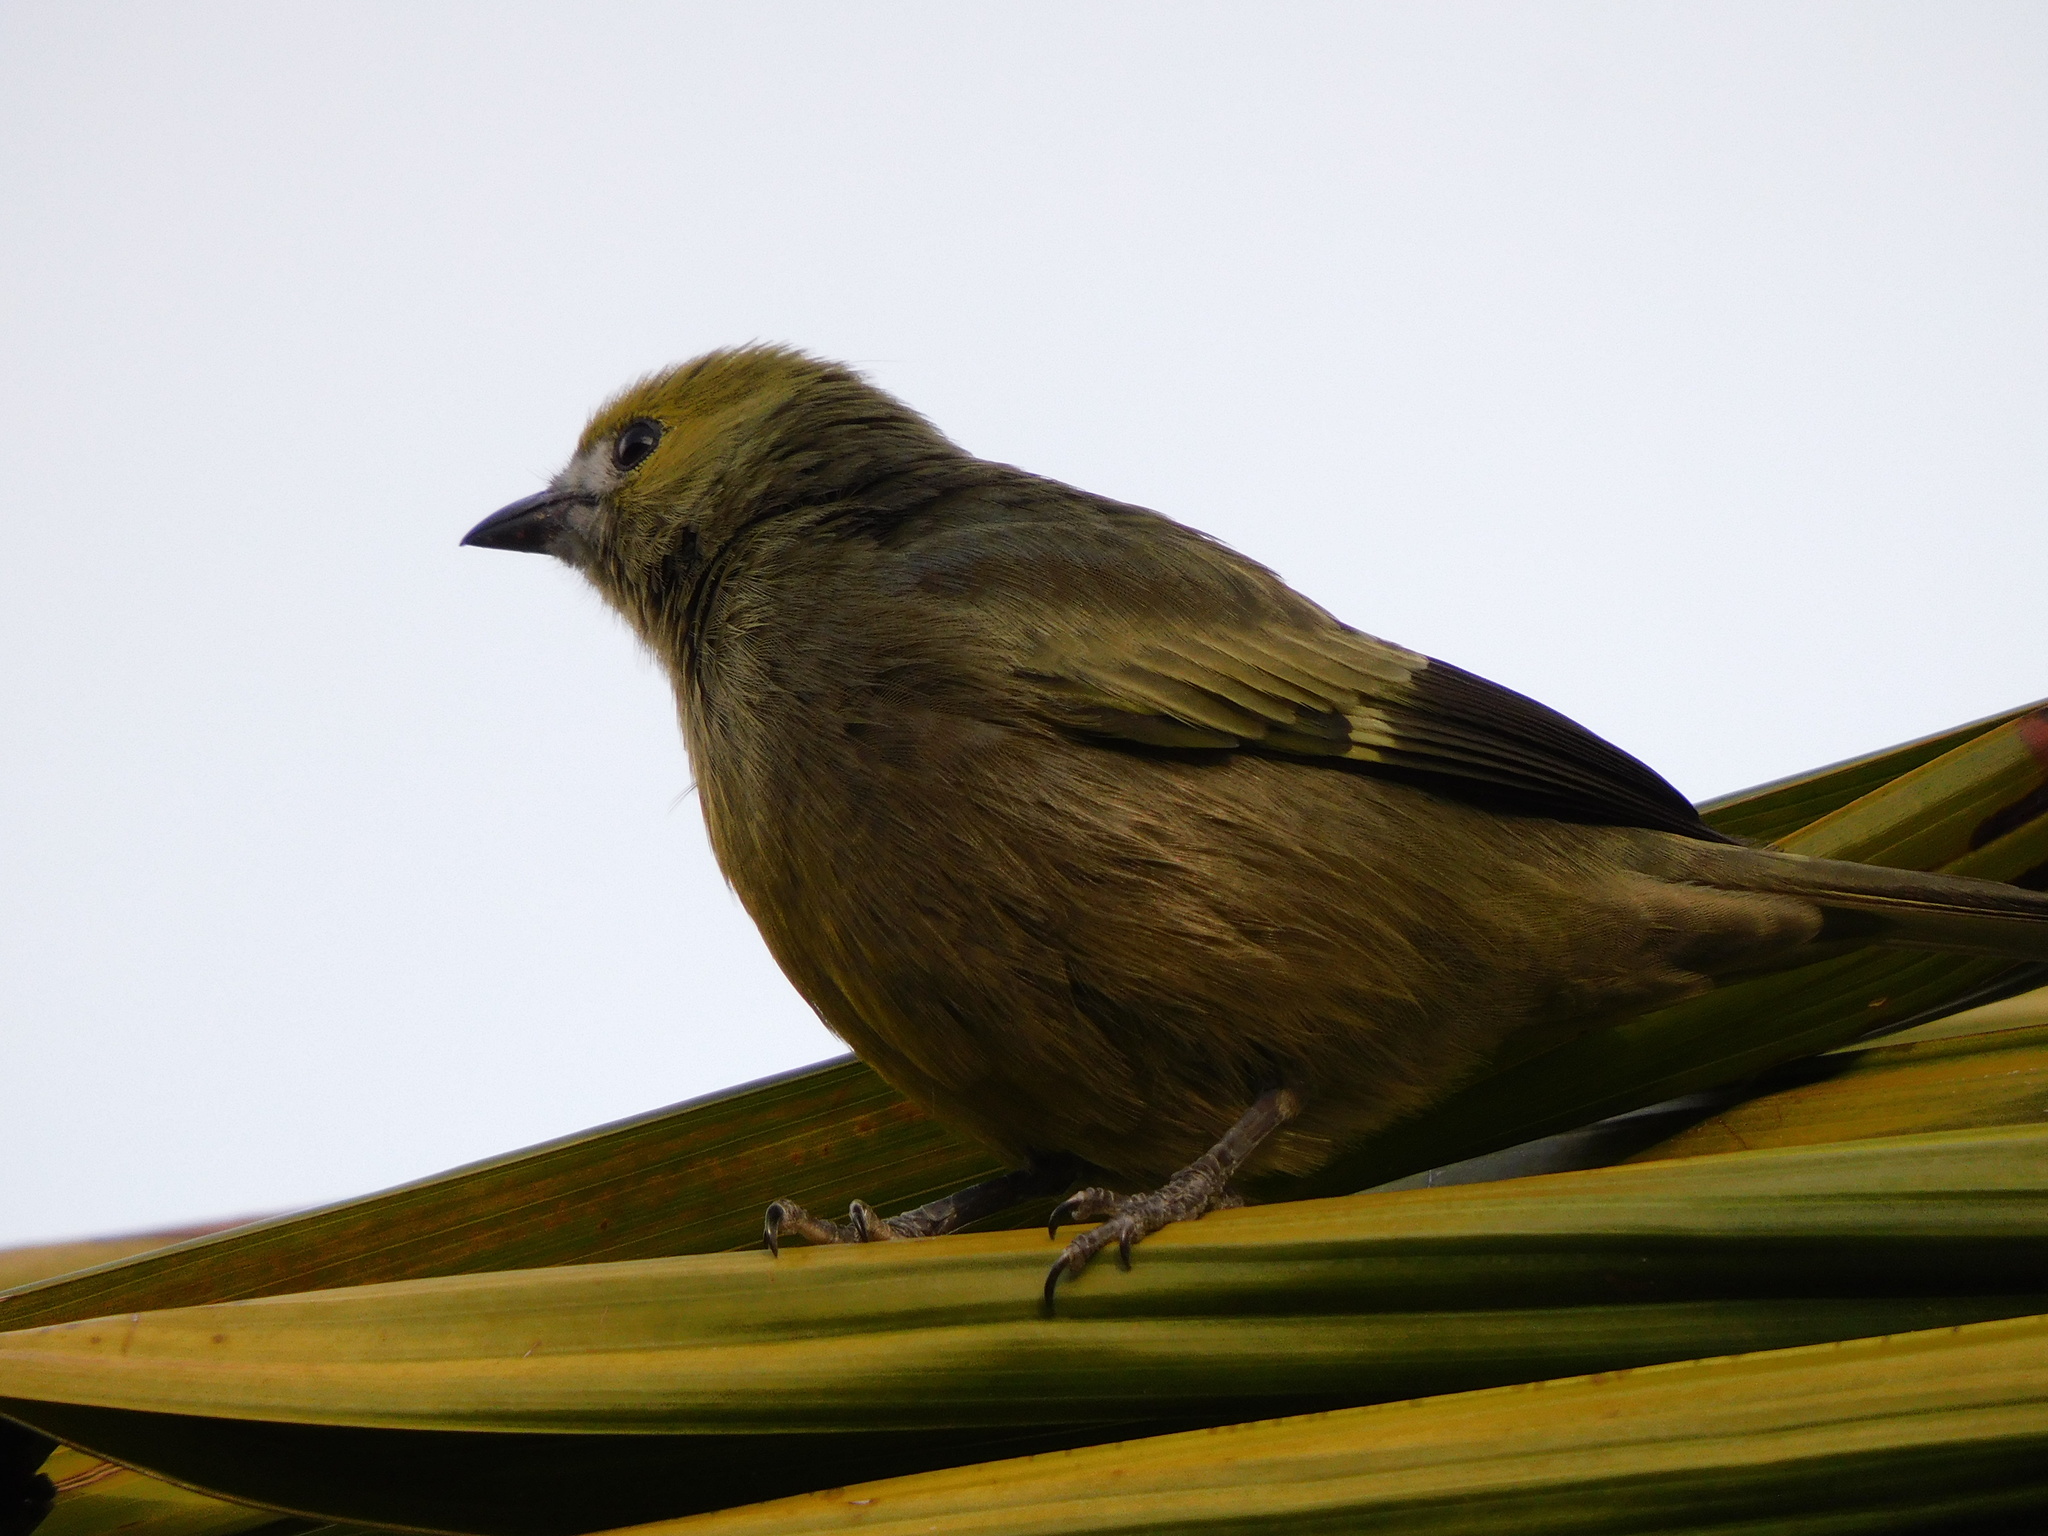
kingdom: Animalia
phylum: Chordata
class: Aves
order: Passeriformes
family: Thraupidae
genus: Thraupis
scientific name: Thraupis palmarum
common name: Palm tanager
